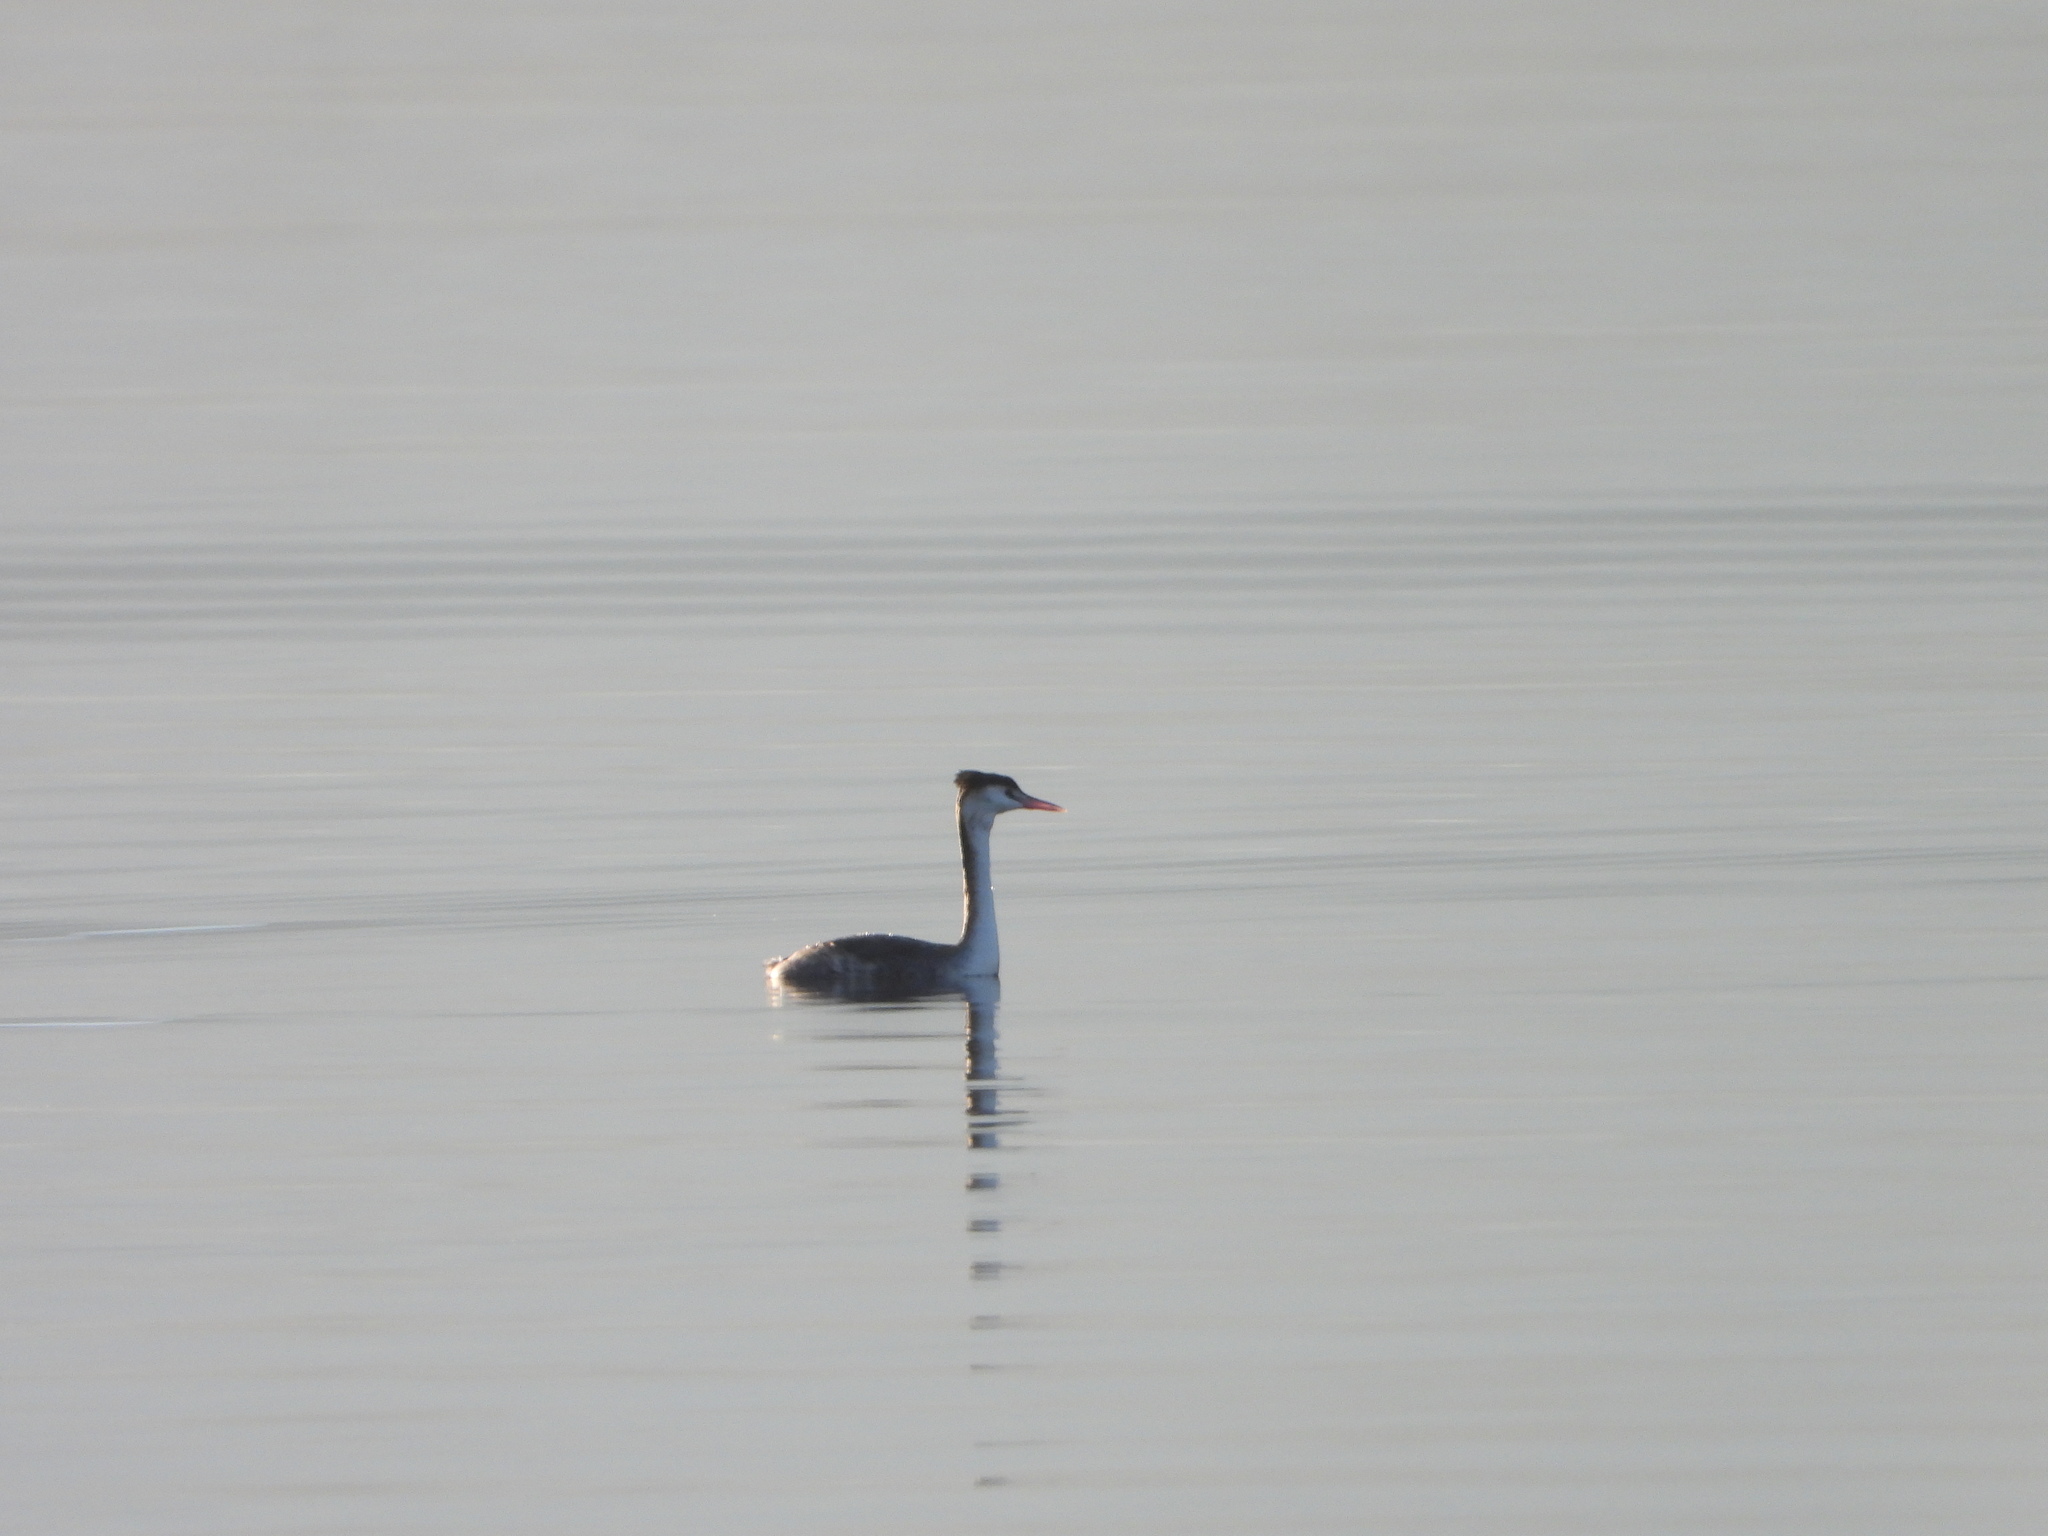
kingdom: Animalia
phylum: Chordata
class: Aves
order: Podicipediformes
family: Podicipedidae
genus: Podiceps
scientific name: Podiceps cristatus
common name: Great crested grebe
